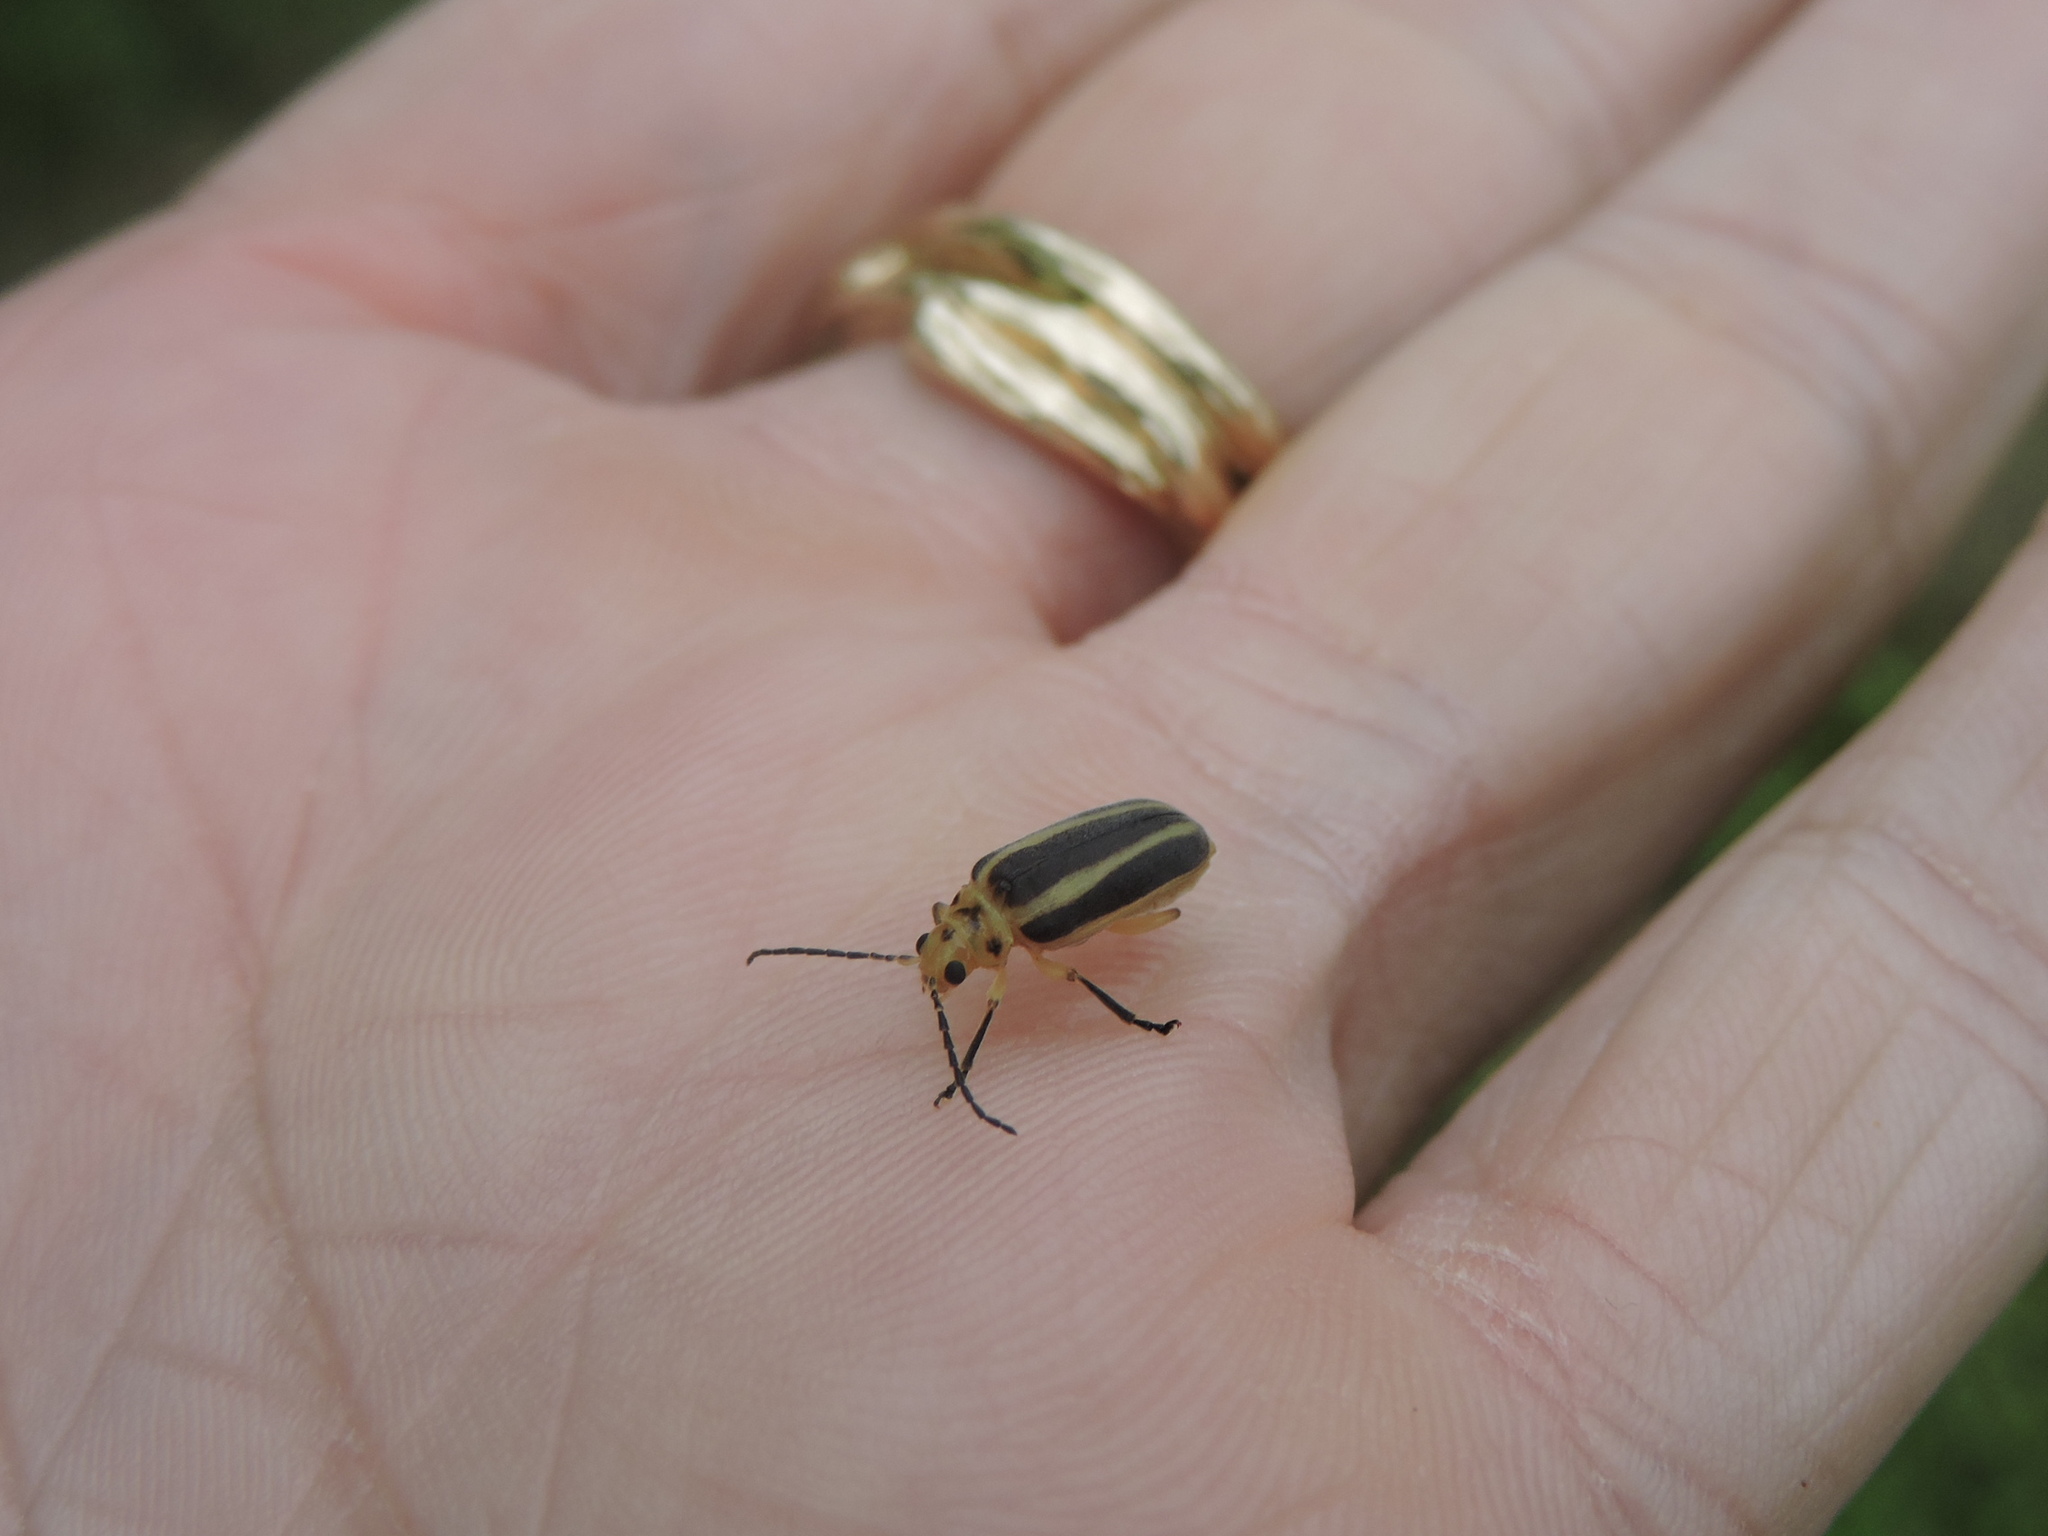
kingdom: Animalia
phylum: Arthropoda
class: Insecta
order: Coleoptera
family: Chrysomelidae
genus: Trirhabda
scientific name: Trirhabda bacharidis
